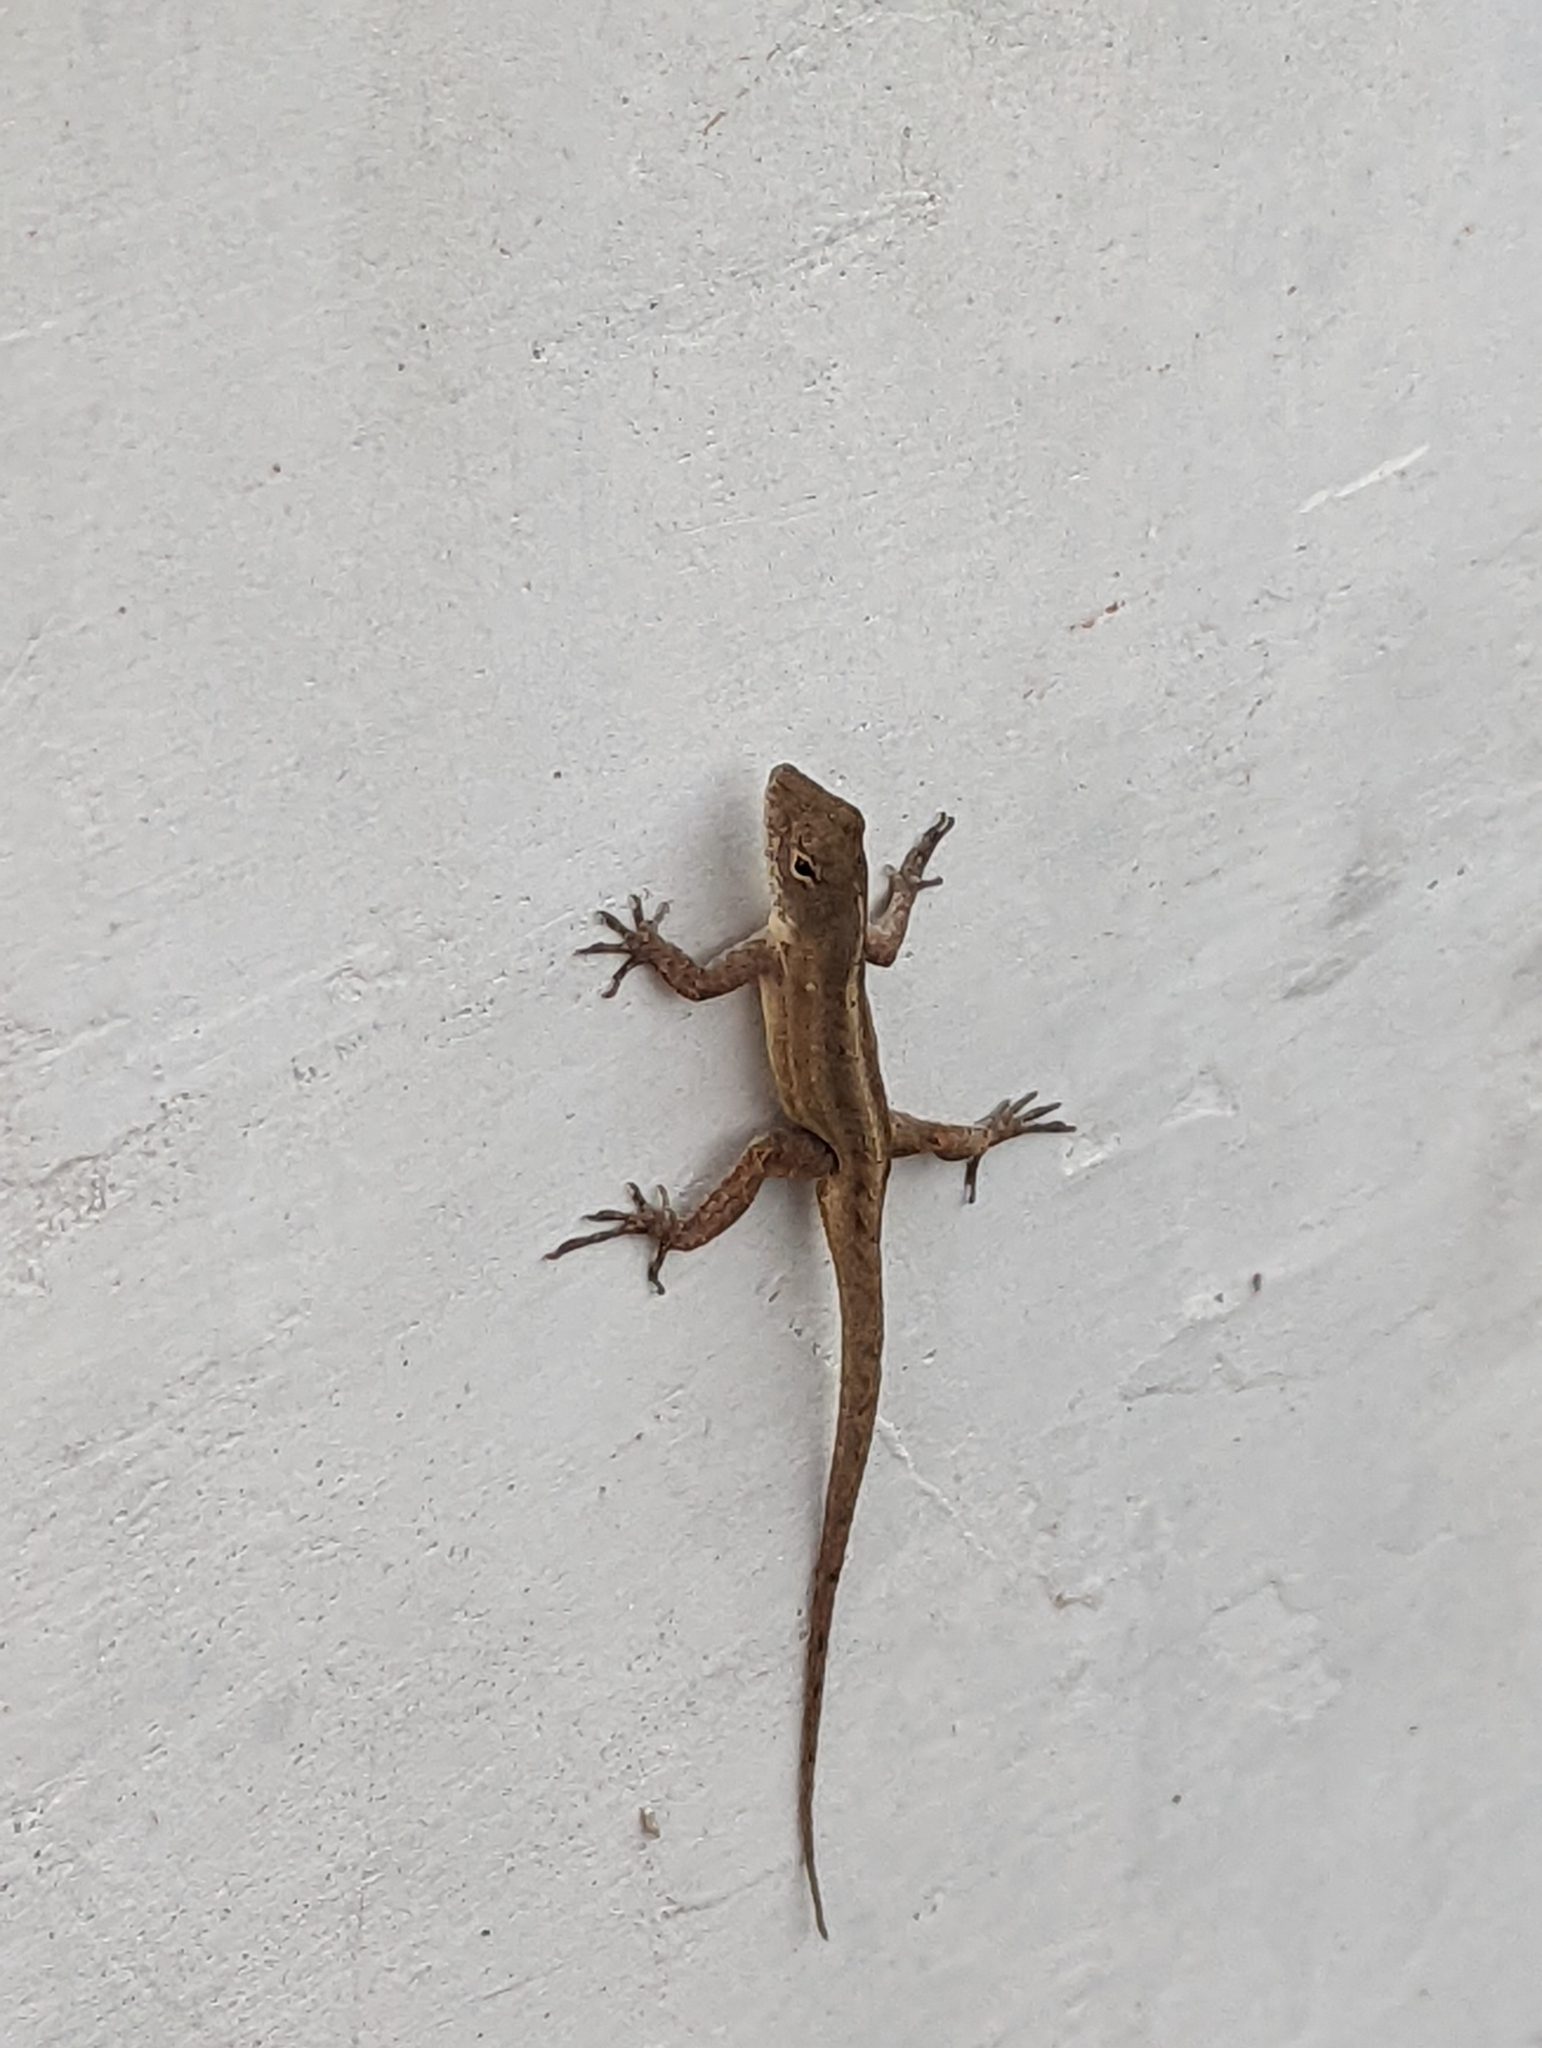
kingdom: Animalia
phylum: Chordata
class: Squamata
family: Dactyloidae
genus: Anolis
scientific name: Anolis sagrei
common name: Brown anole
